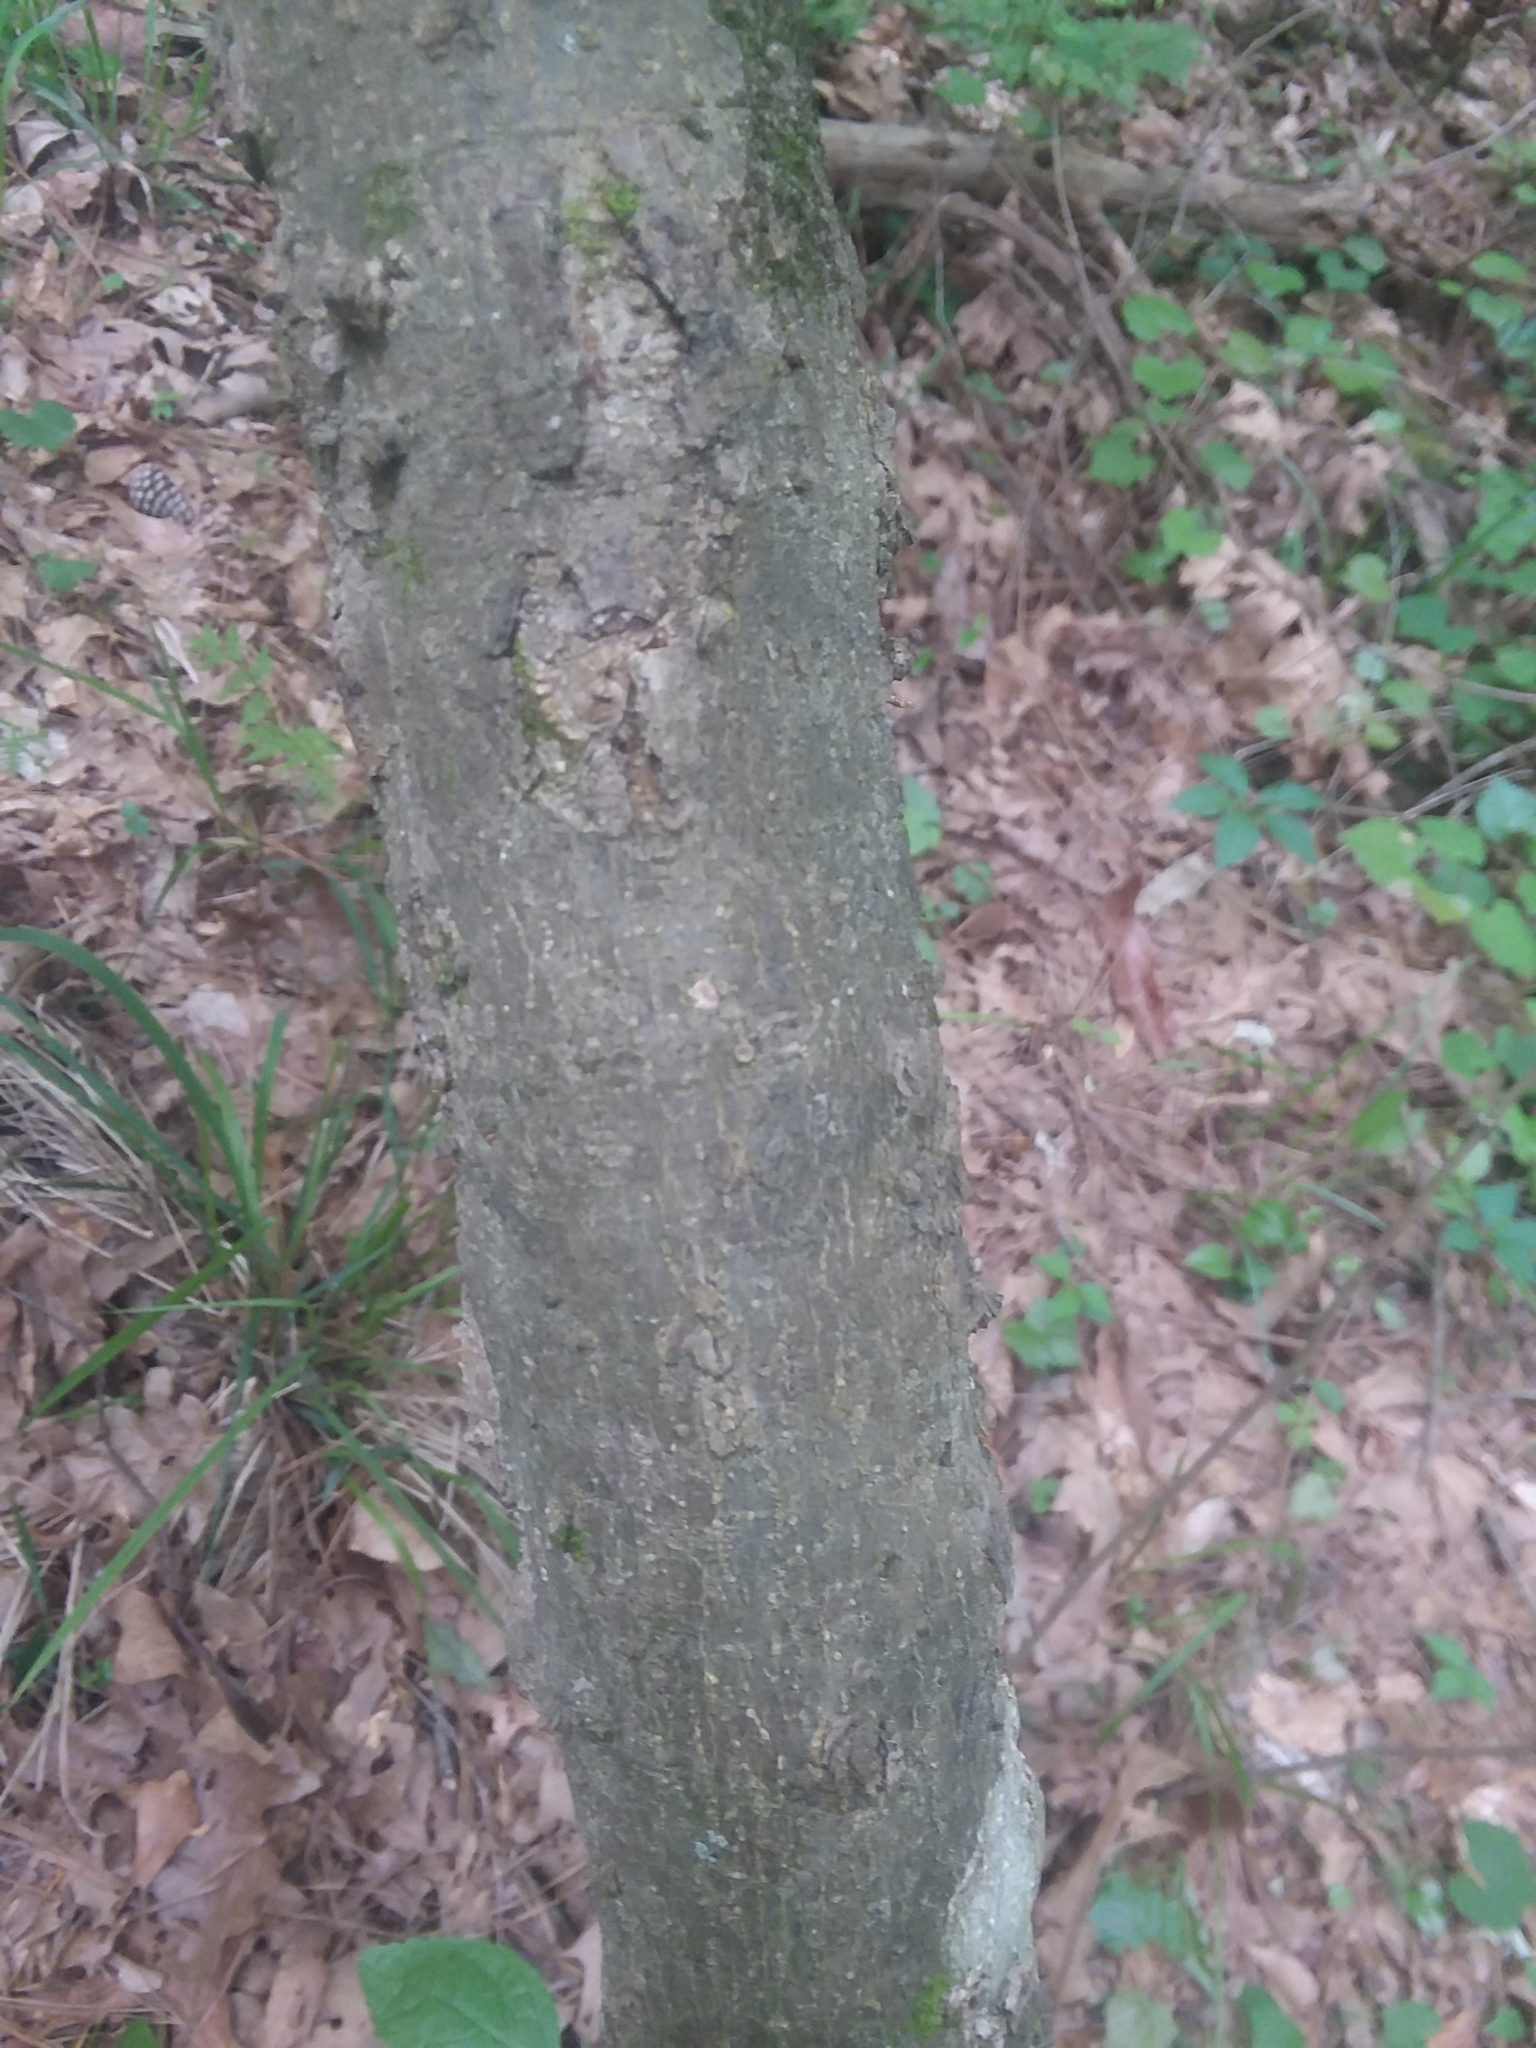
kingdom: Plantae
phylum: Tracheophyta
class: Magnoliopsida
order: Rosales
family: Cannabaceae
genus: Celtis
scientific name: Celtis tenuifolia
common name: Georgia hackberry
